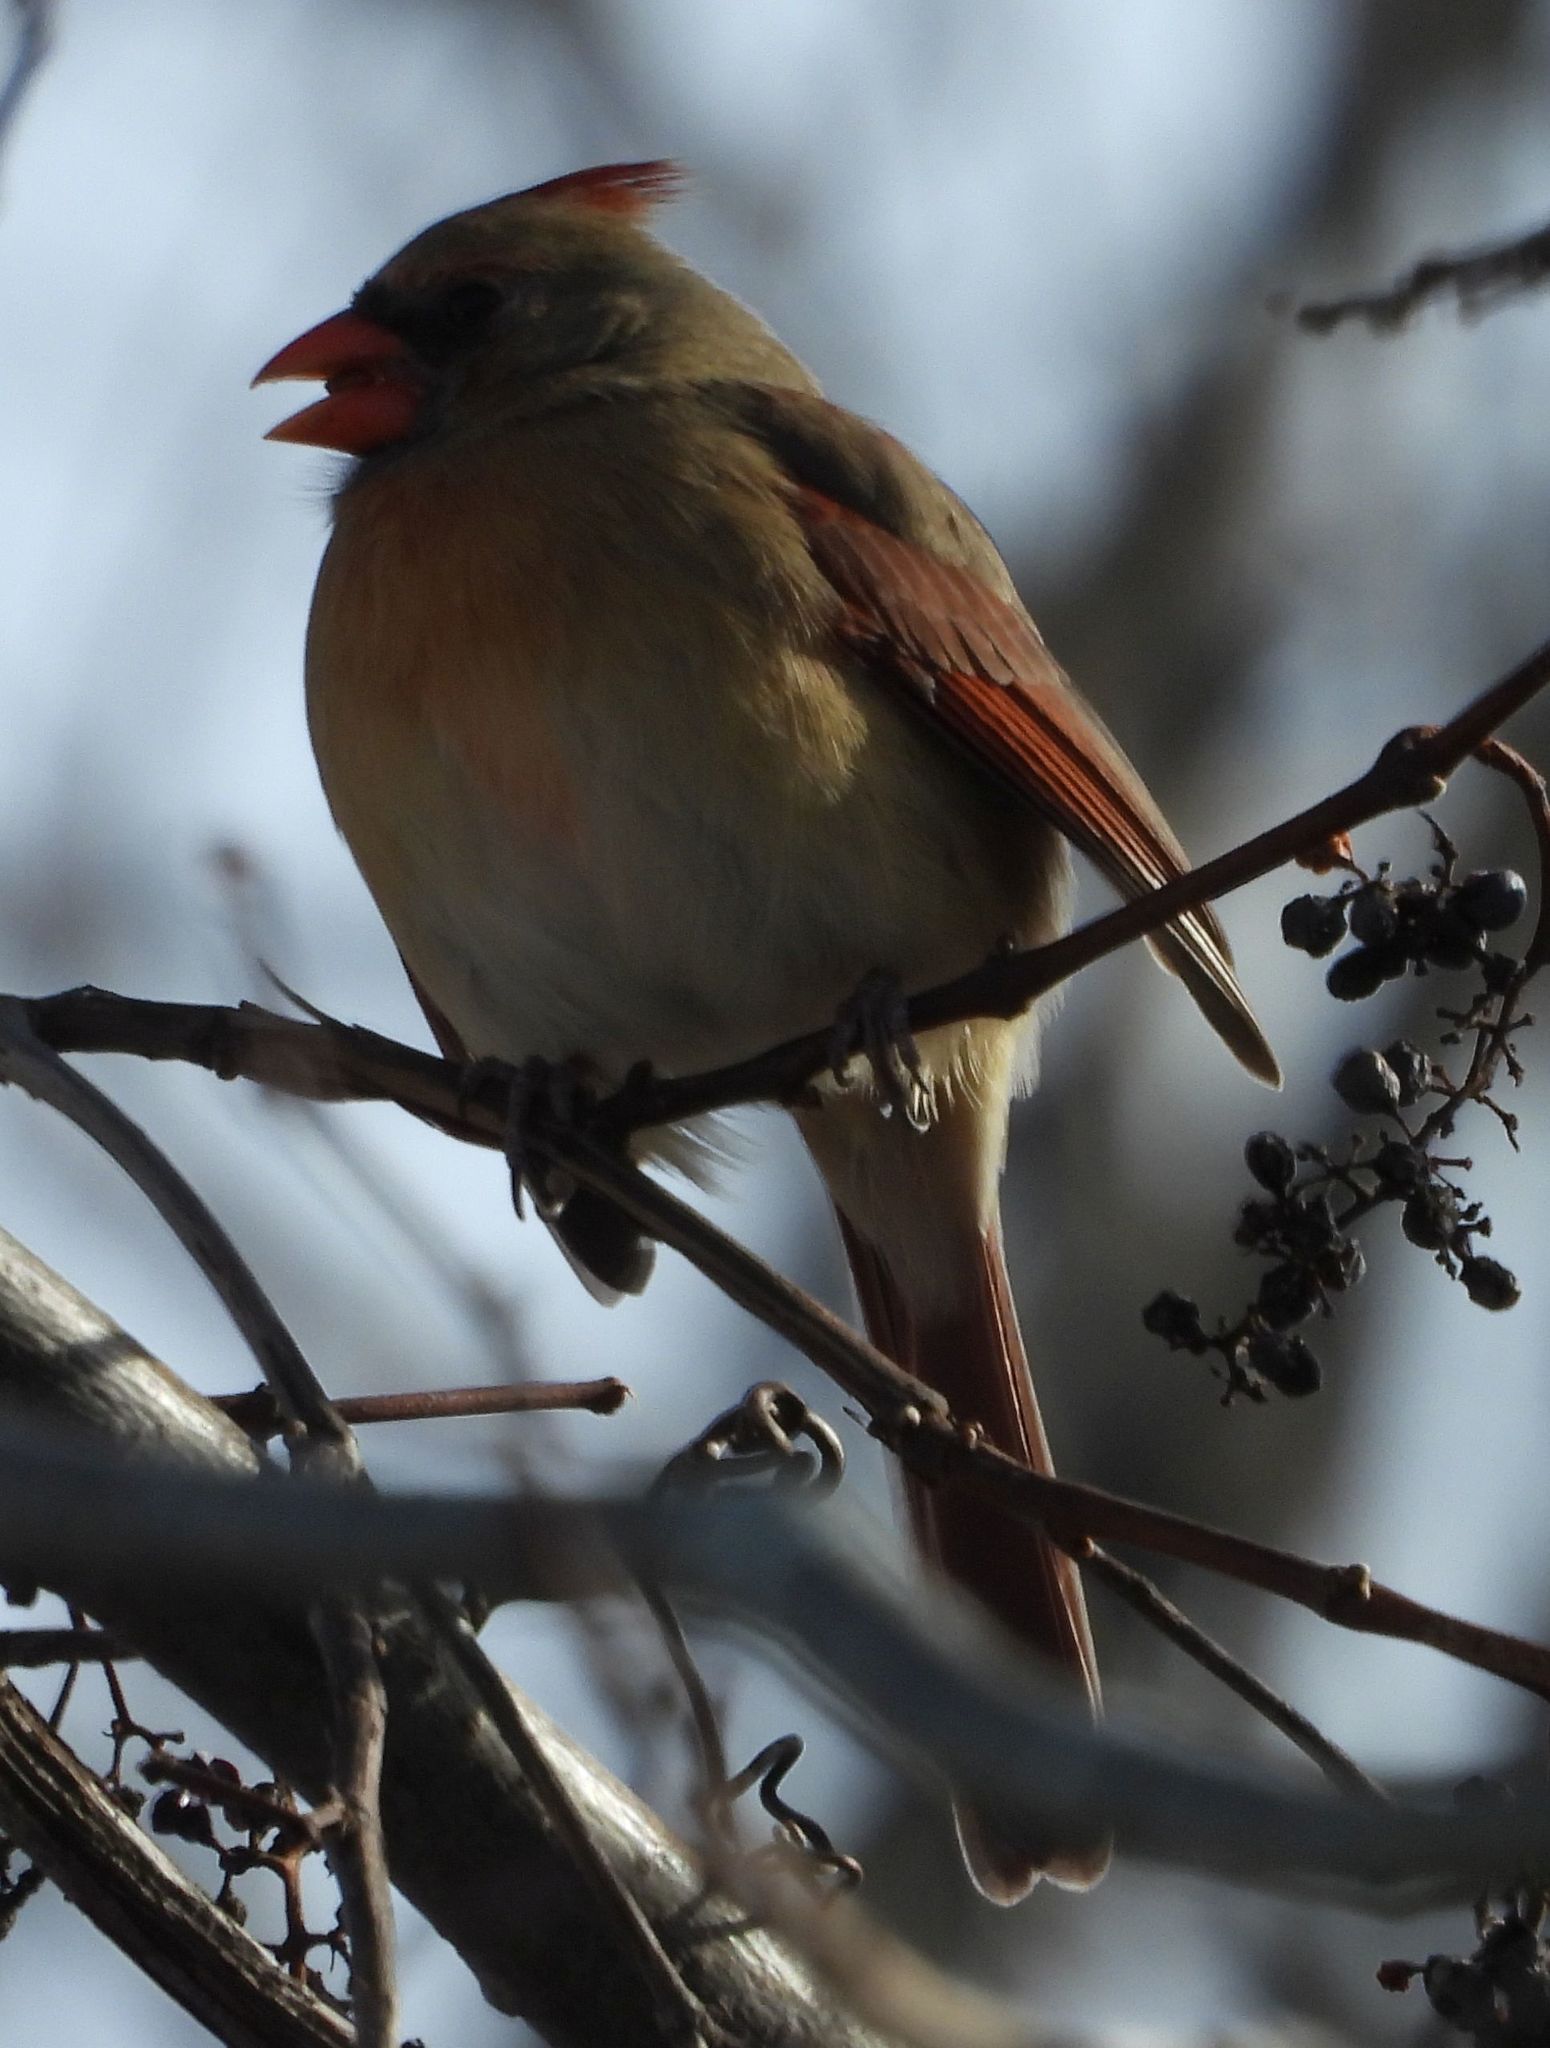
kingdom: Animalia
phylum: Chordata
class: Aves
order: Passeriformes
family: Cardinalidae
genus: Cardinalis
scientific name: Cardinalis cardinalis
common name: Northern cardinal
